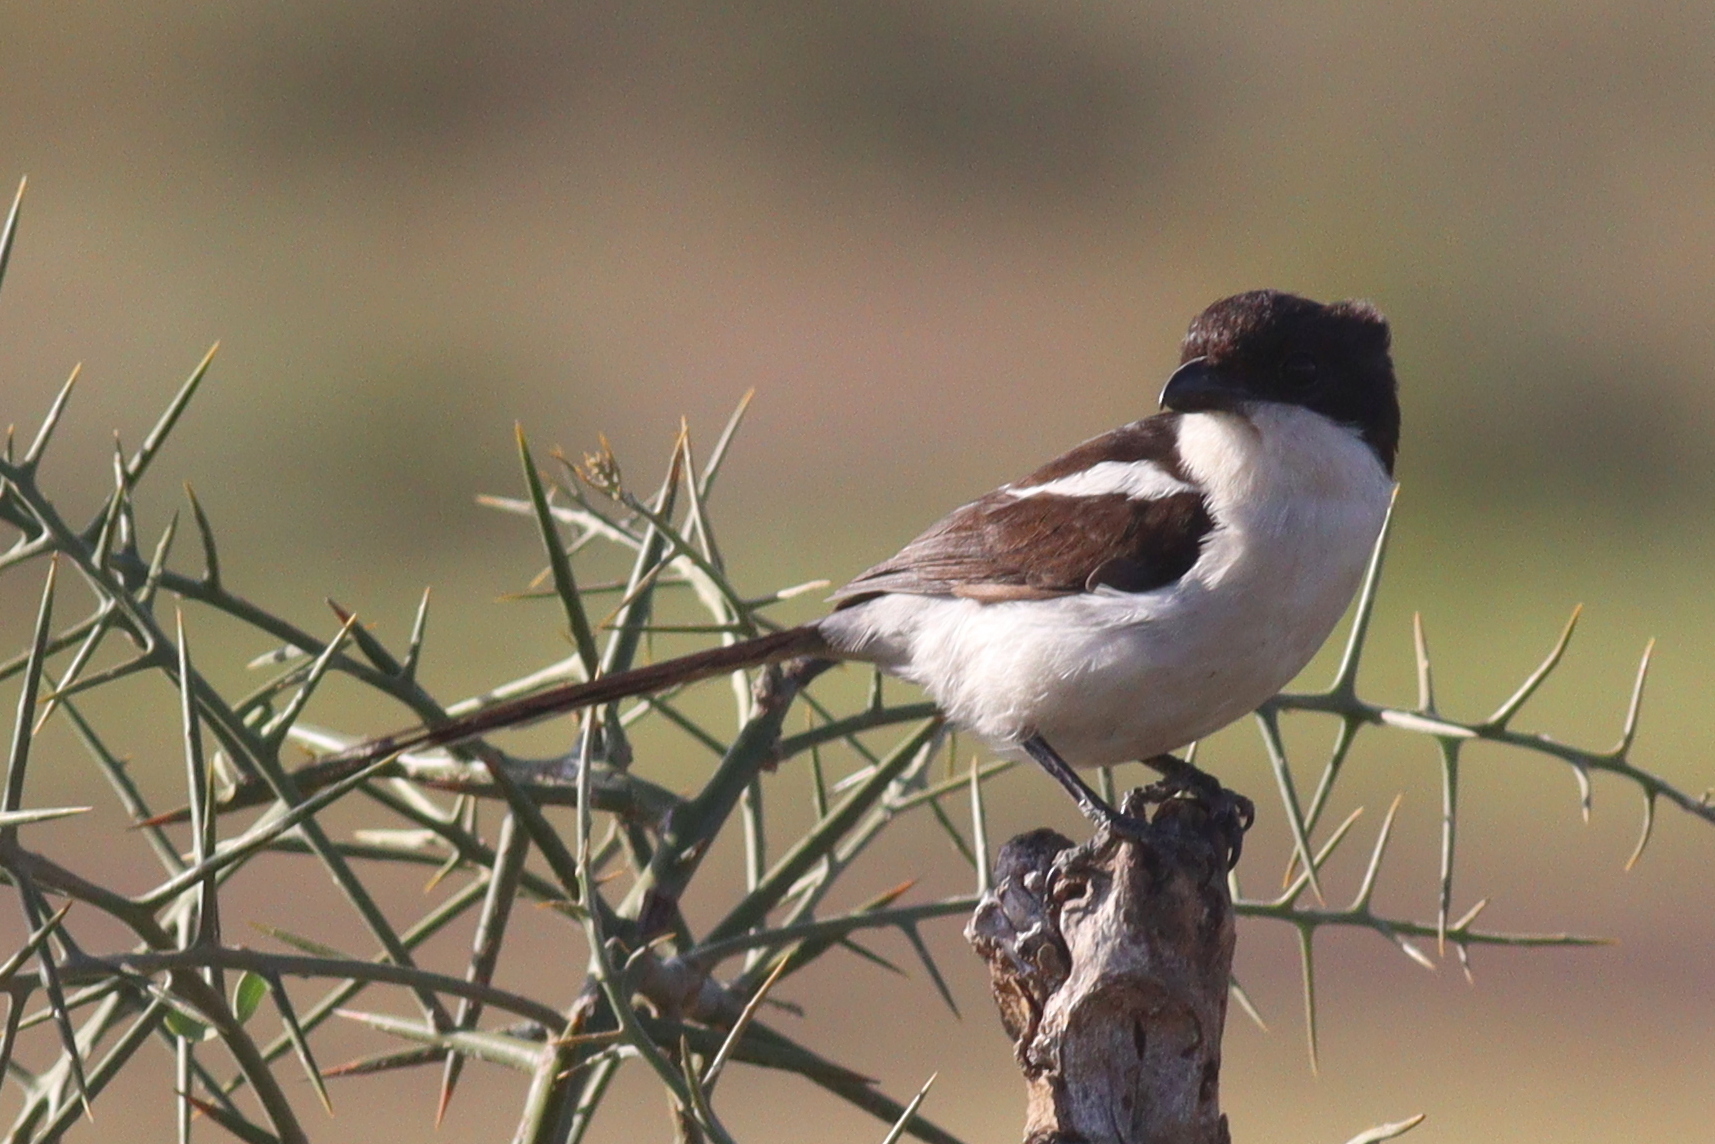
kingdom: Animalia
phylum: Chordata
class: Aves
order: Passeriformes
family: Laniidae
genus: Lanius
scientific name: Lanius humeralis
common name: Northern fiscal
